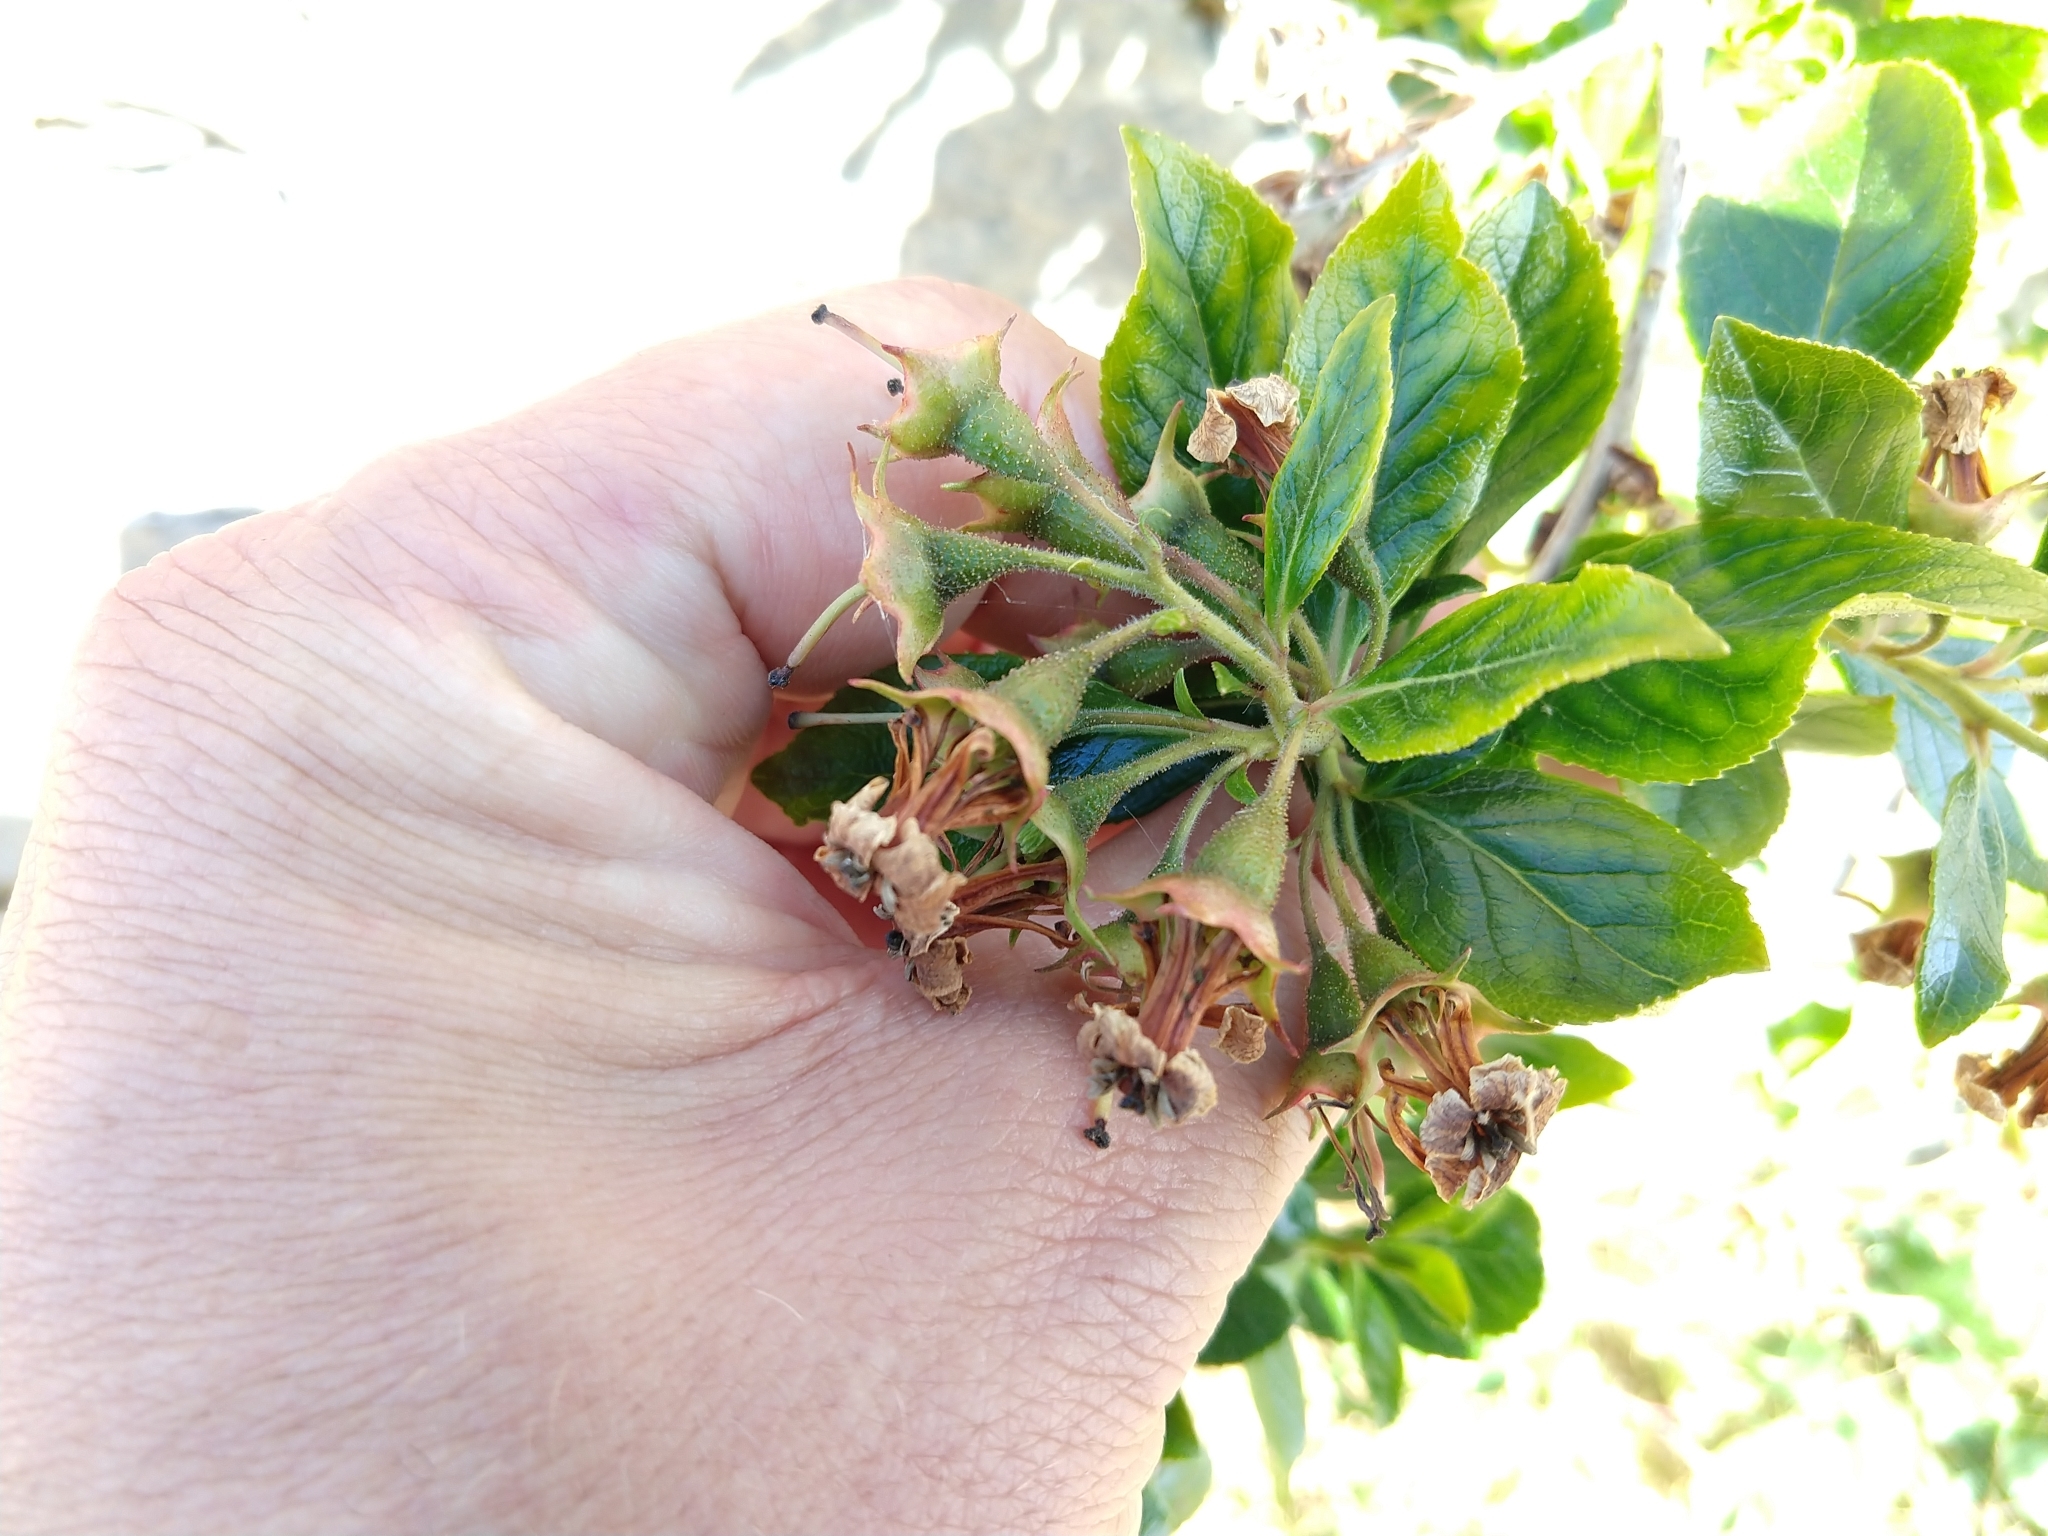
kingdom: Plantae
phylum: Tracheophyta
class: Magnoliopsida
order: Escalloniales
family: Escalloniaceae
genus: Escallonia
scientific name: Escallonia rubra
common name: Redclaws
